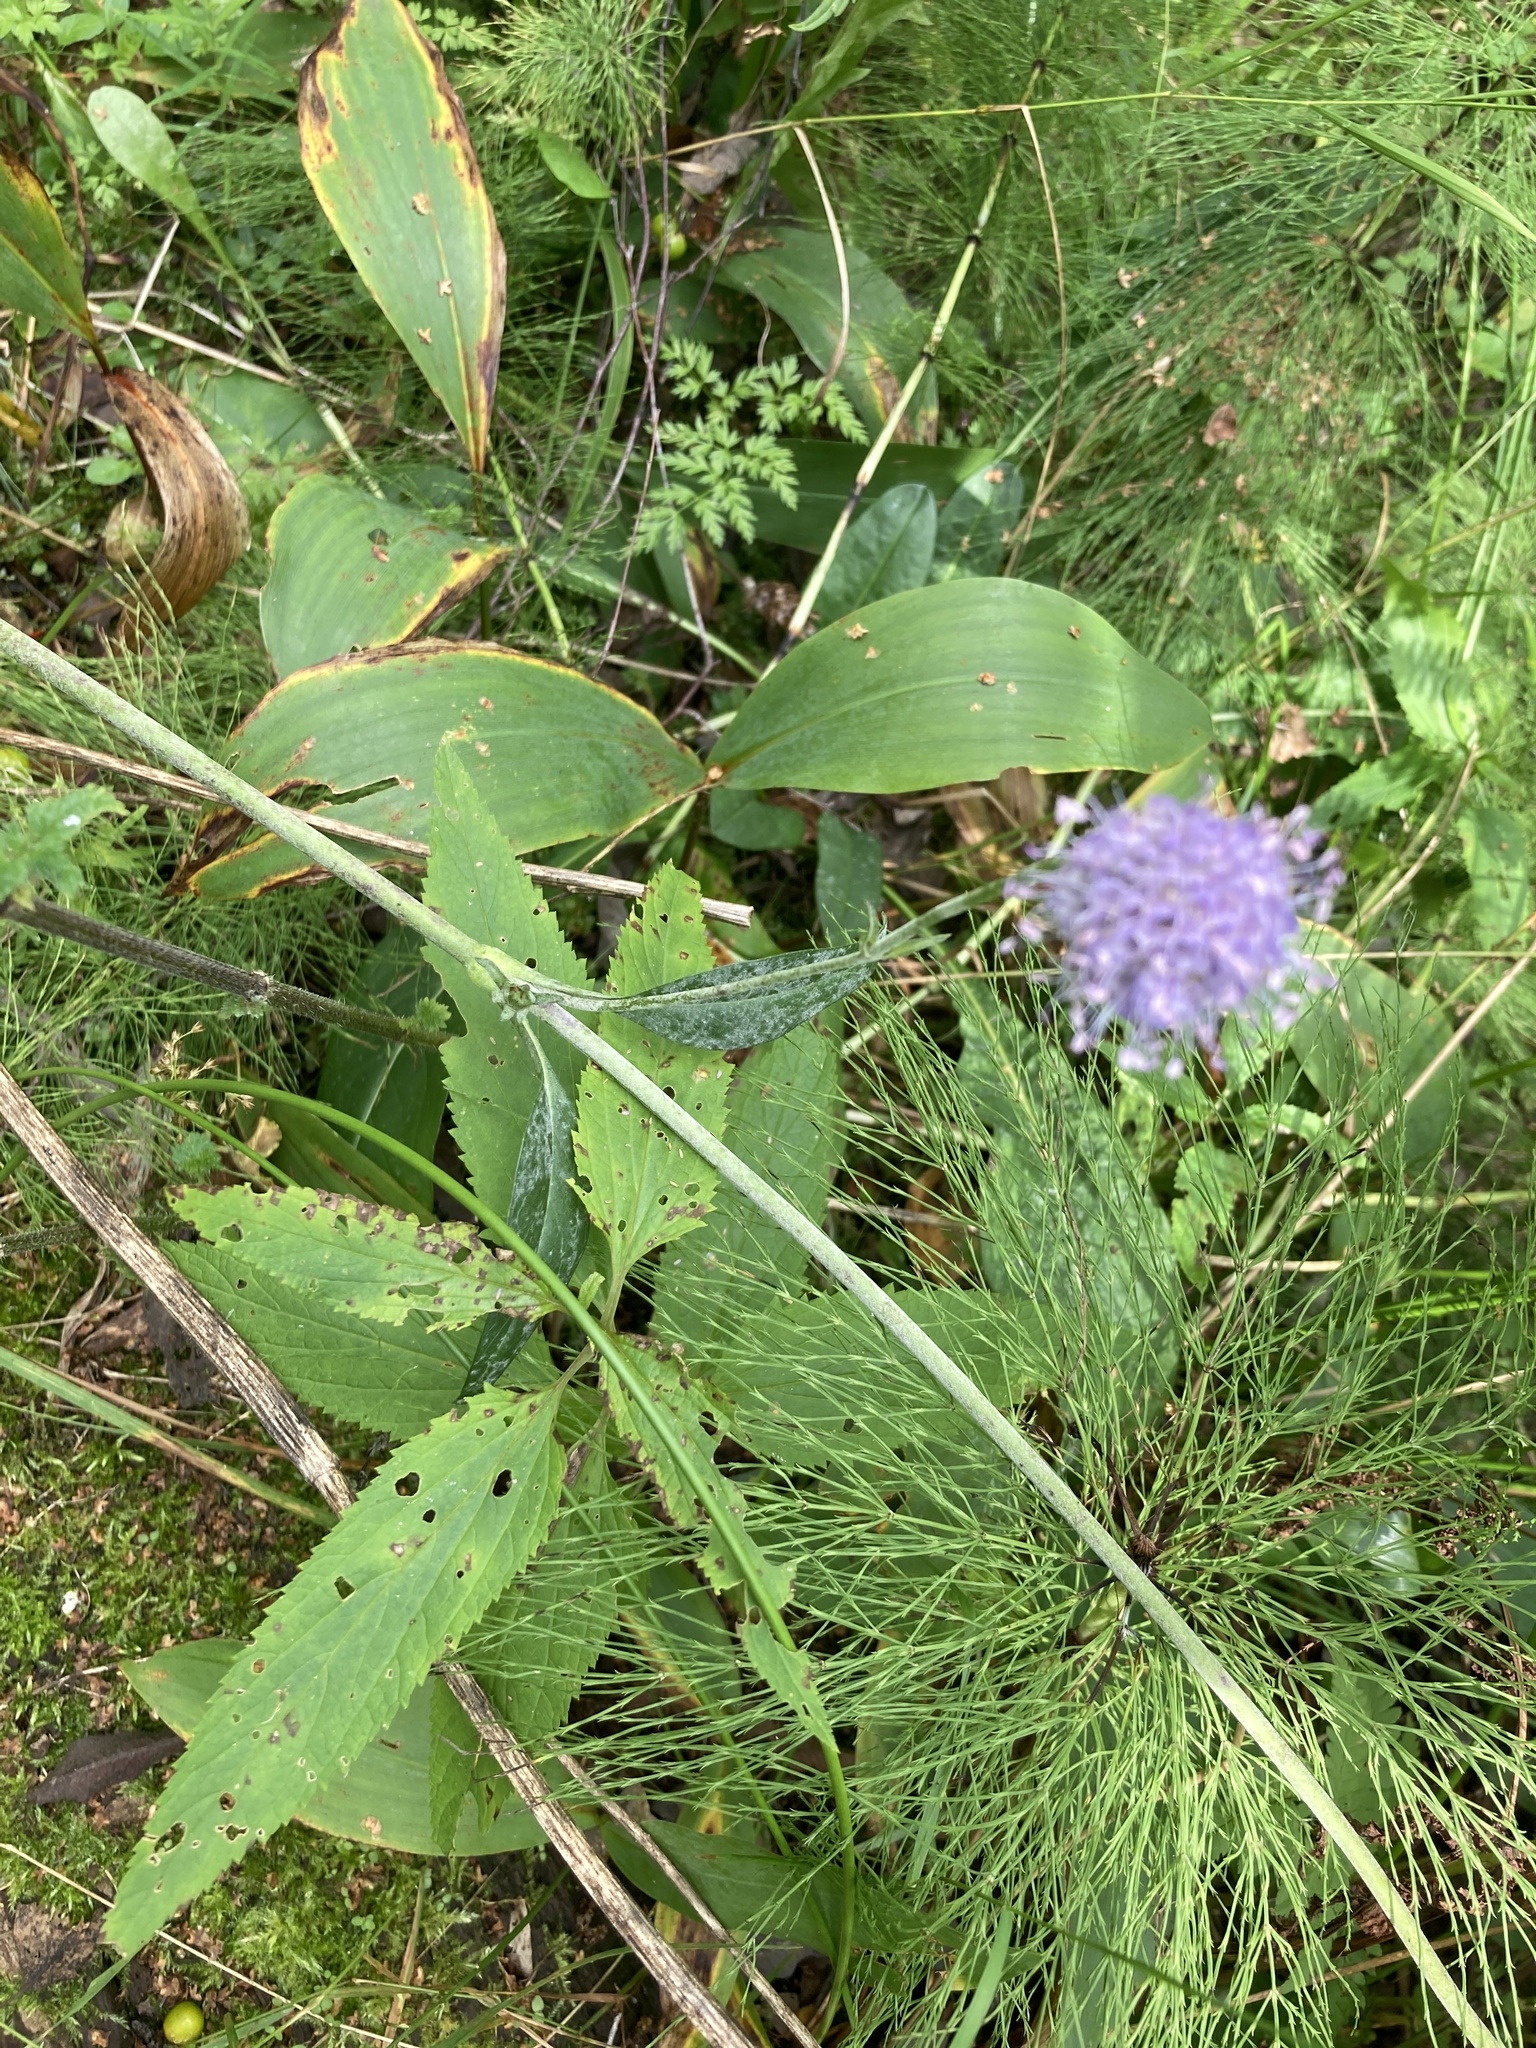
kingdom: Plantae
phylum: Tracheophyta
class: Magnoliopsida
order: Dipsacales
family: Caprifoliaceae
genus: Succisa
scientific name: Succisa pratensis
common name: Devil's-bit
